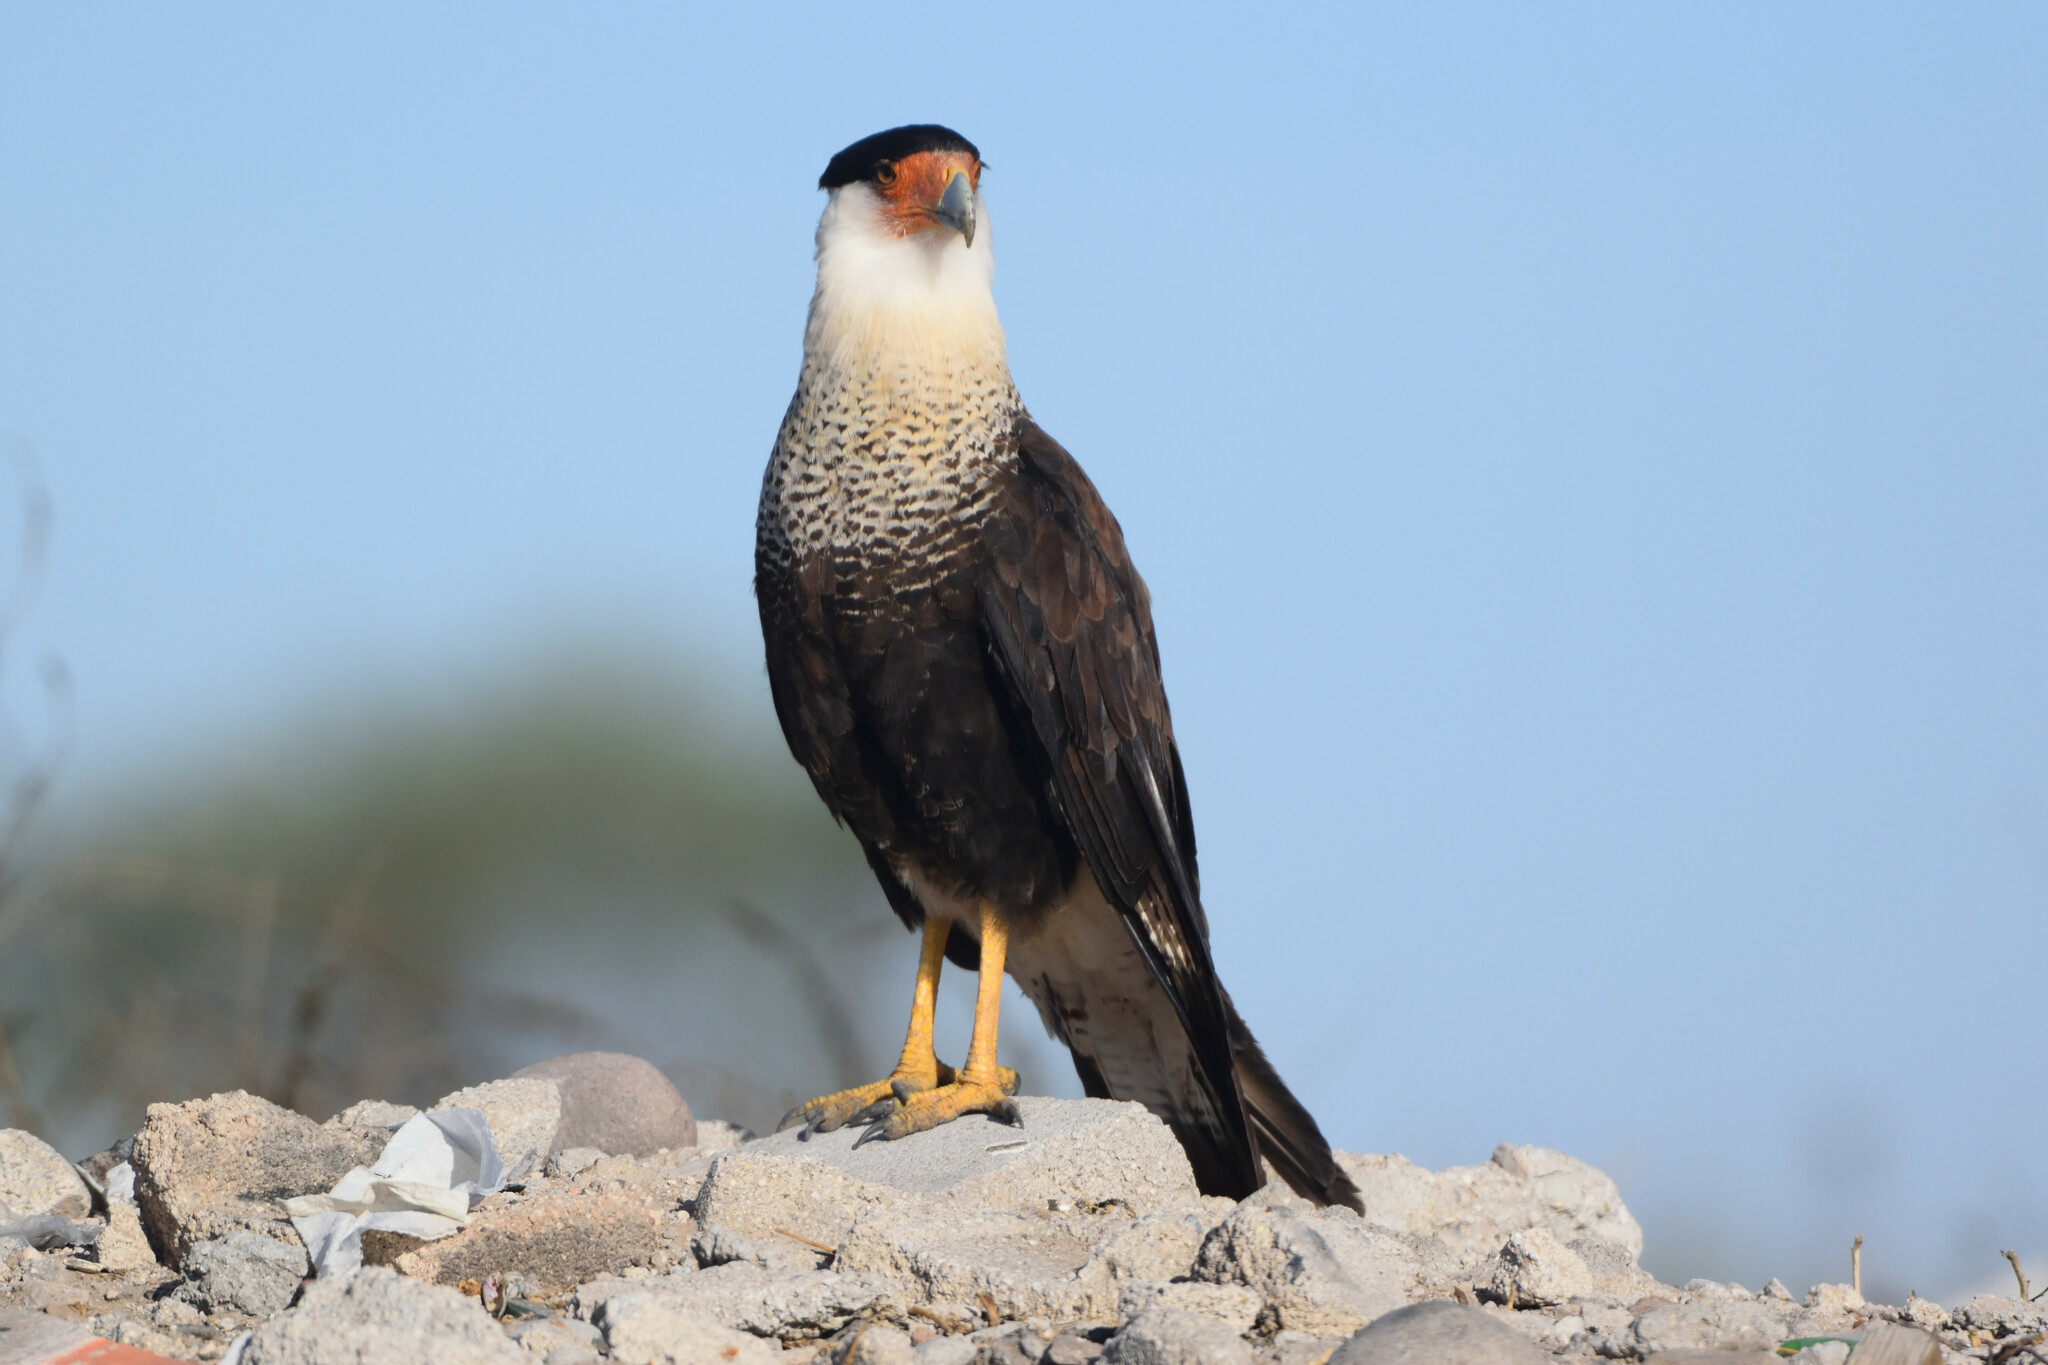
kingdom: Animalia
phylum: Chordata
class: Aves
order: Falconiformes
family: Falconidae
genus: Caracara
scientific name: Caracara plancus
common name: Southern caracara
